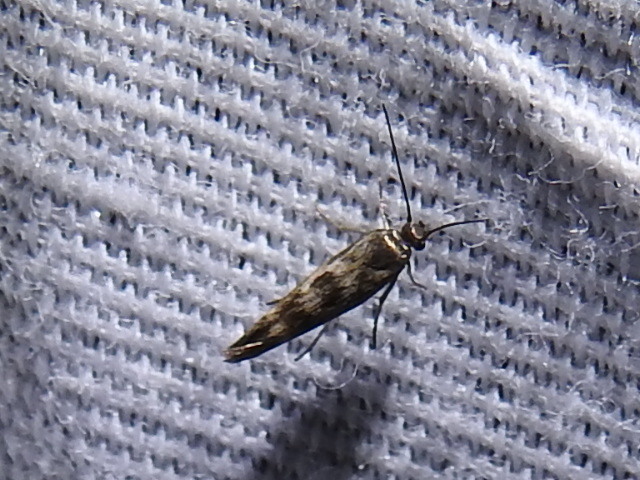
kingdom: Animalia
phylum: Arthropoda
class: Insecta
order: Lepidoptera
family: Scythrididae
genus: Scythris
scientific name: Scythris trivinctella
